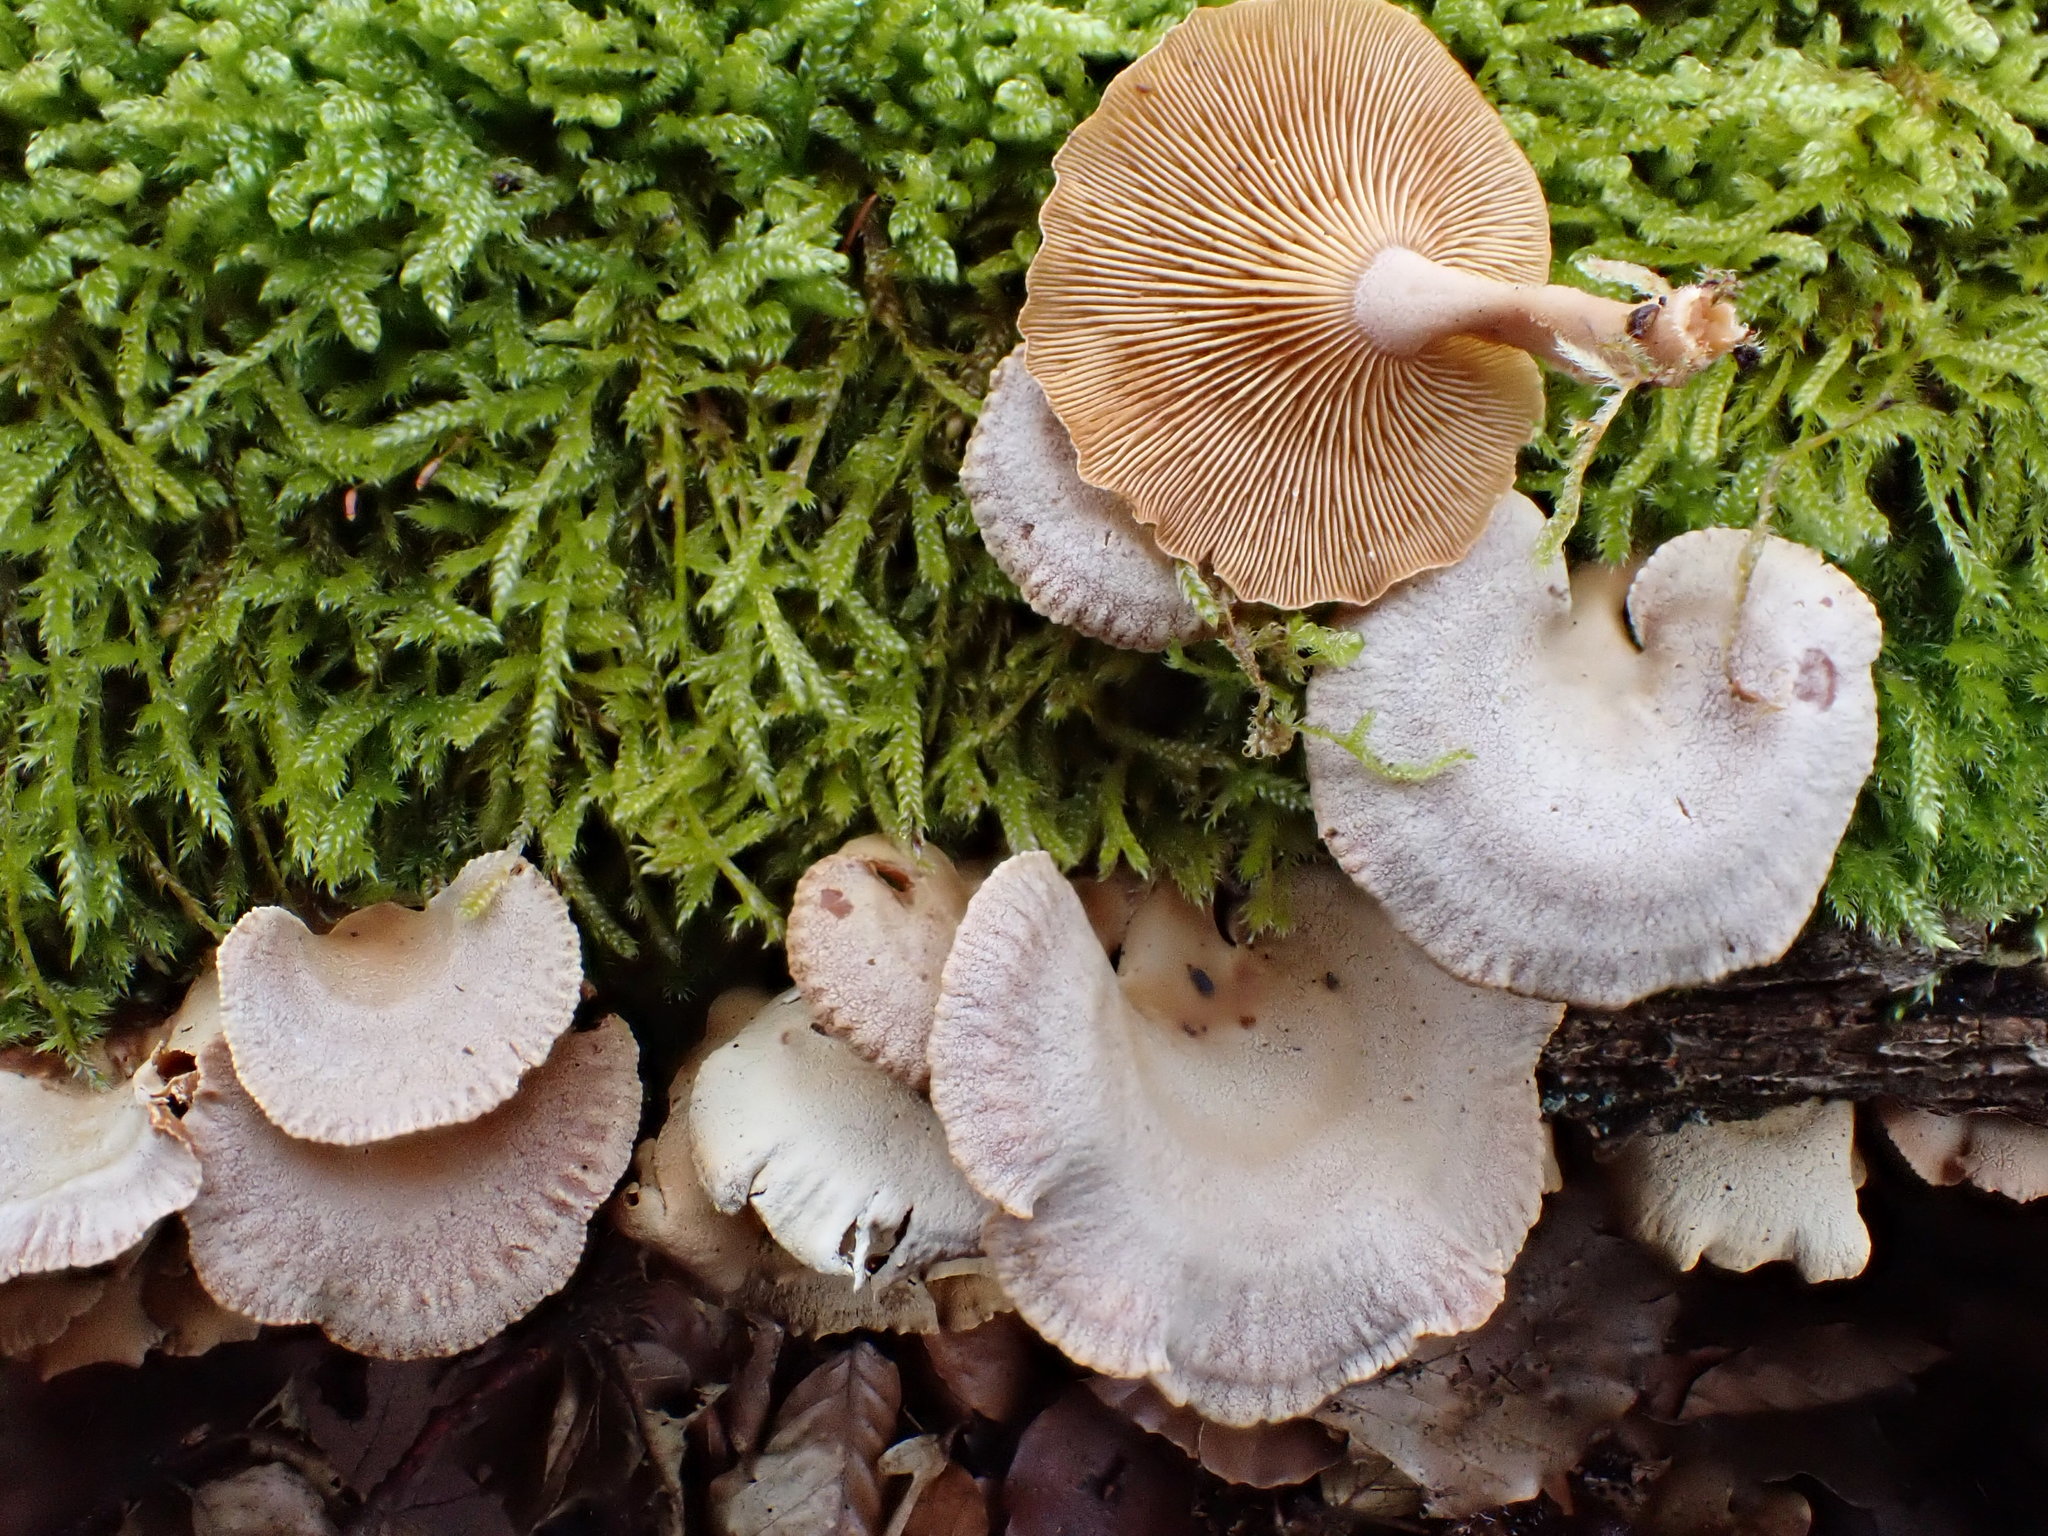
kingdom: Fungi
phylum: Basidiomycota
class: Agaricomycetes
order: Agaricales
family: Mycenaceae
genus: Panellus
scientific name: Panellus stipticus
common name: Bitter oysterling
